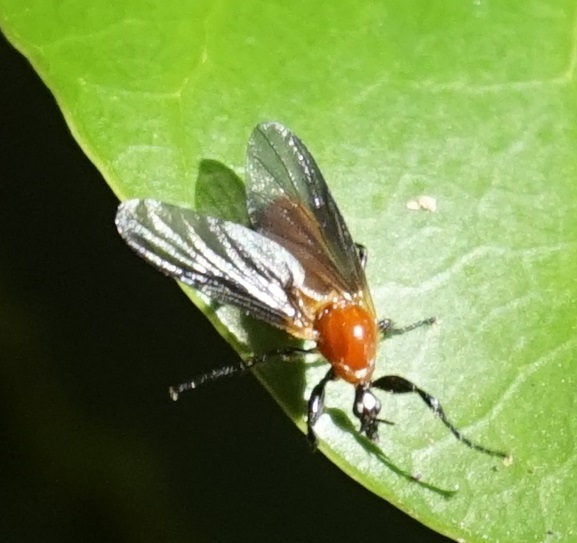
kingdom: Animalia
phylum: Arthropoda
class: Insecta
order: Diptera
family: Bibionidae
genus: Bibio
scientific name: Bibio imitator
